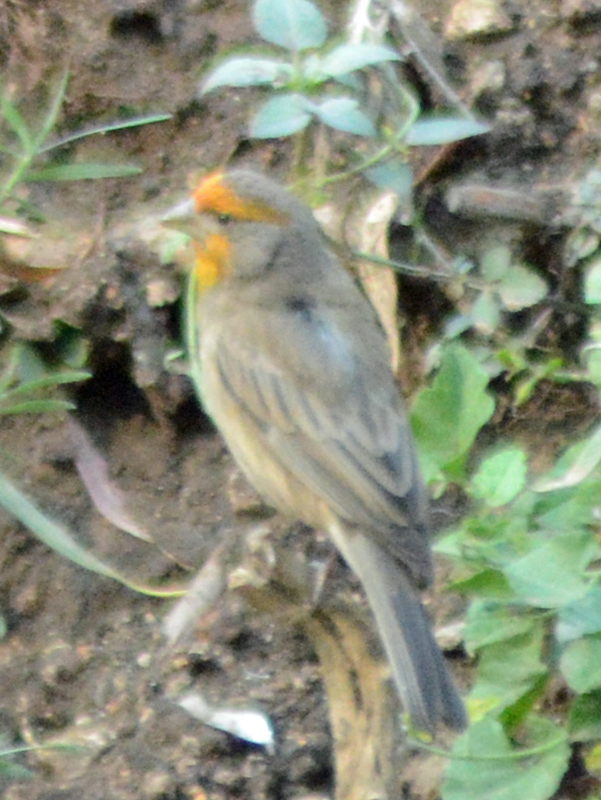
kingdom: Animalia
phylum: Chordata
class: Aves
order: Passeriformes
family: Fringillidae
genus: Haemorhous
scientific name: Haemorhous mexicanus
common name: House finch
